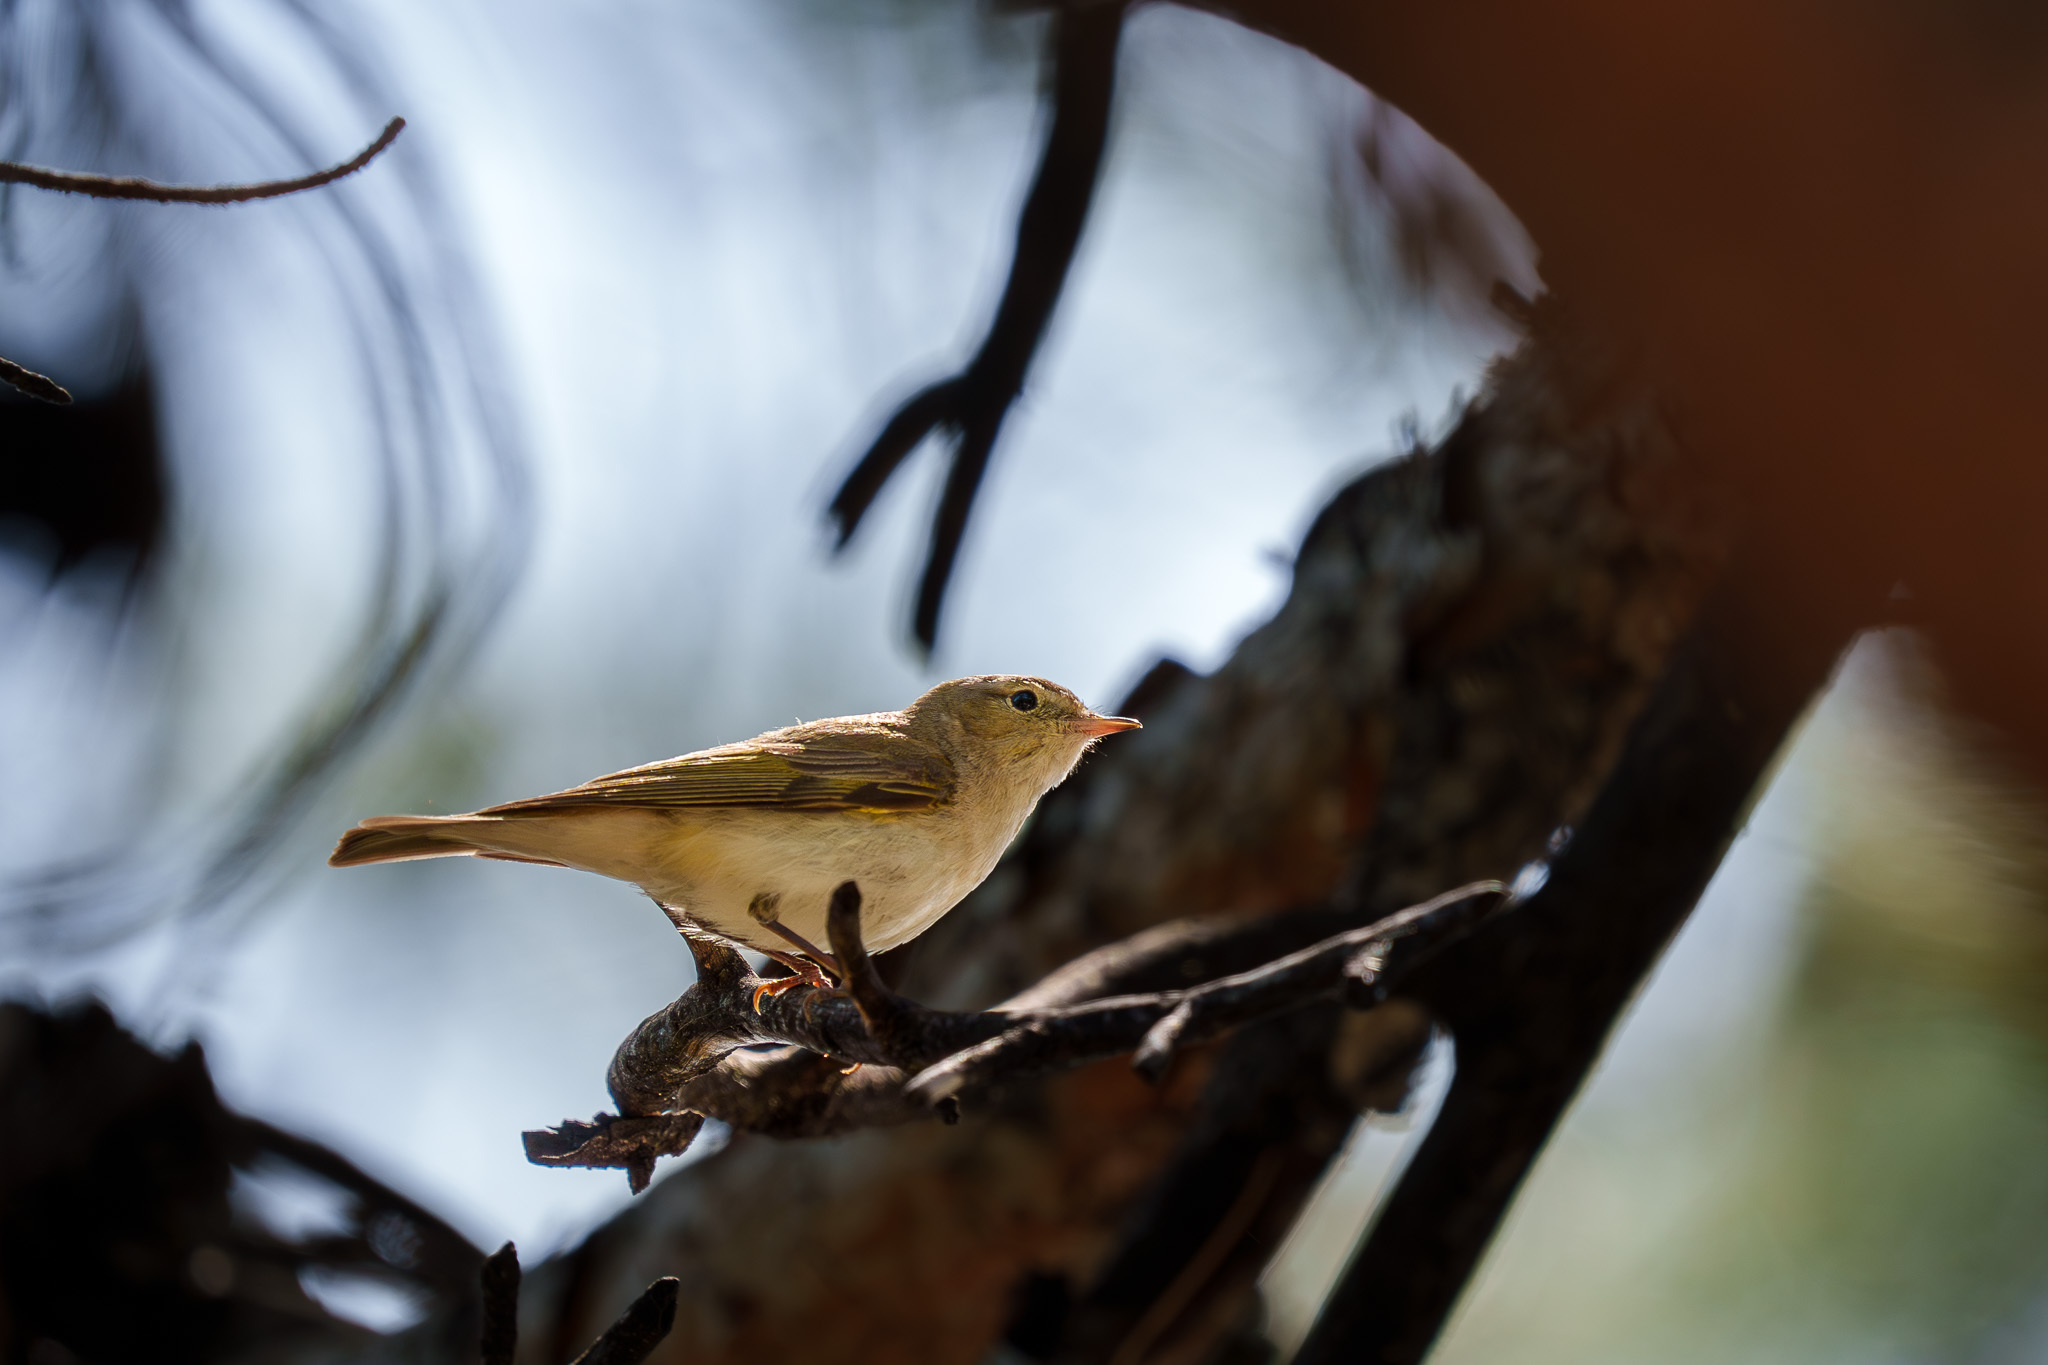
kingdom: Animalia
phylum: Chordata
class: Aves
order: Passeriformes
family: Phylloscopidae
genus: Phylloscopus
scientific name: Phylloscopus trochilus
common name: Willow warbler
